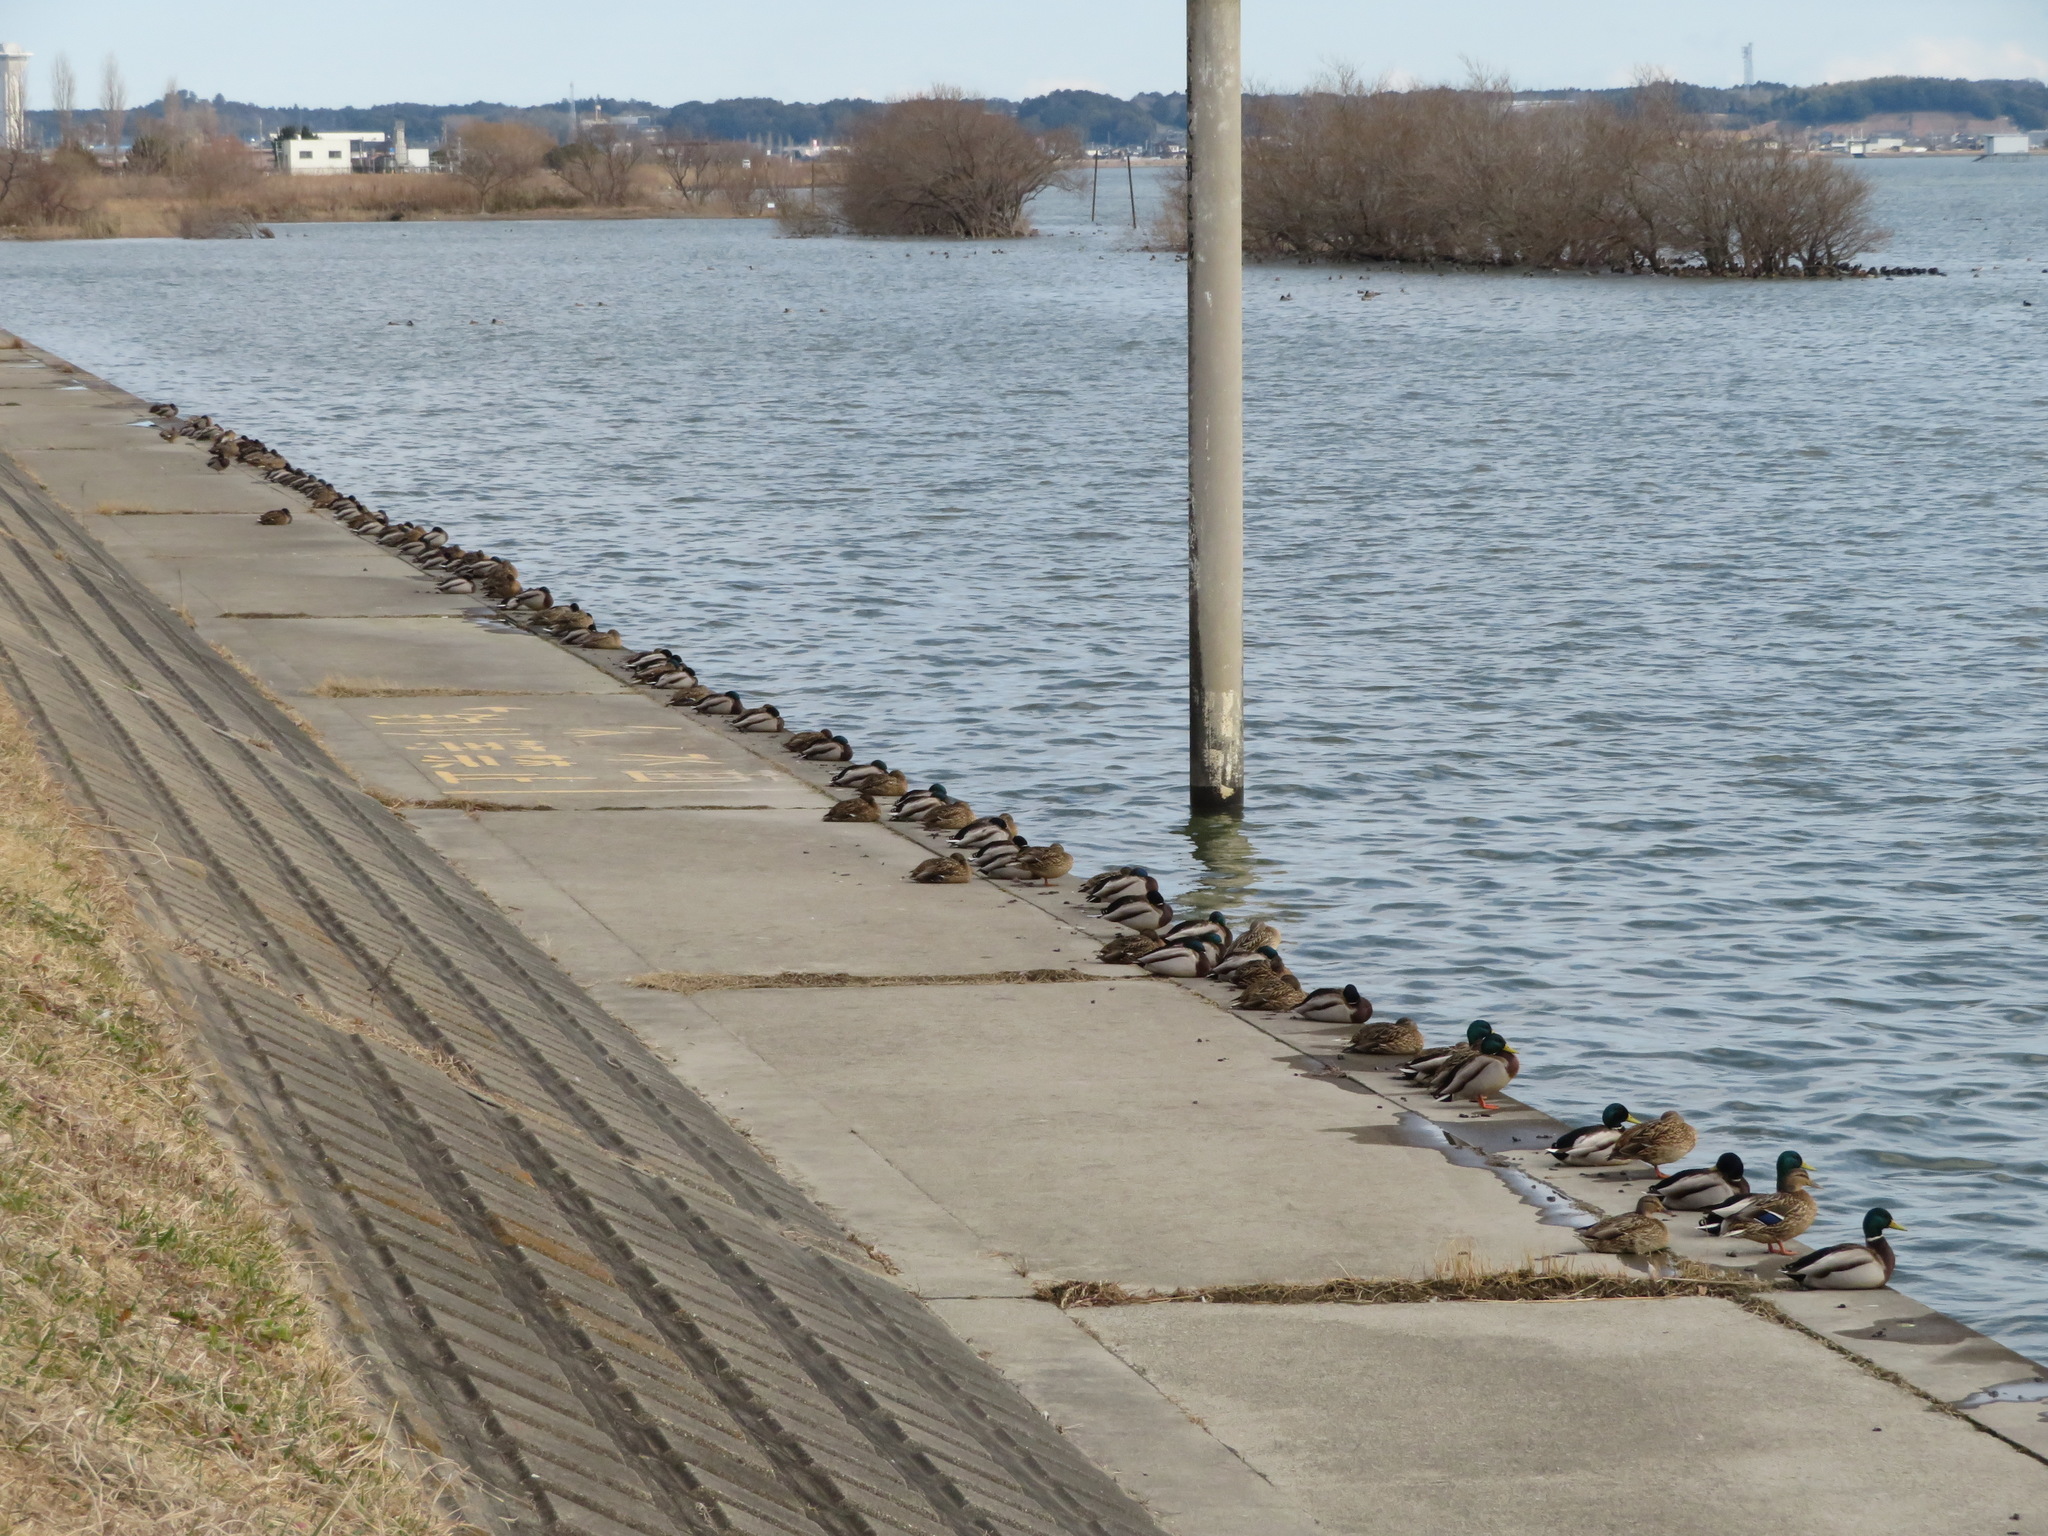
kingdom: Animalia
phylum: Chordata
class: Aves
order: Anseriformes
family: Anatidae
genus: Anas
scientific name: Anas platyrhynchos
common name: Mallard
